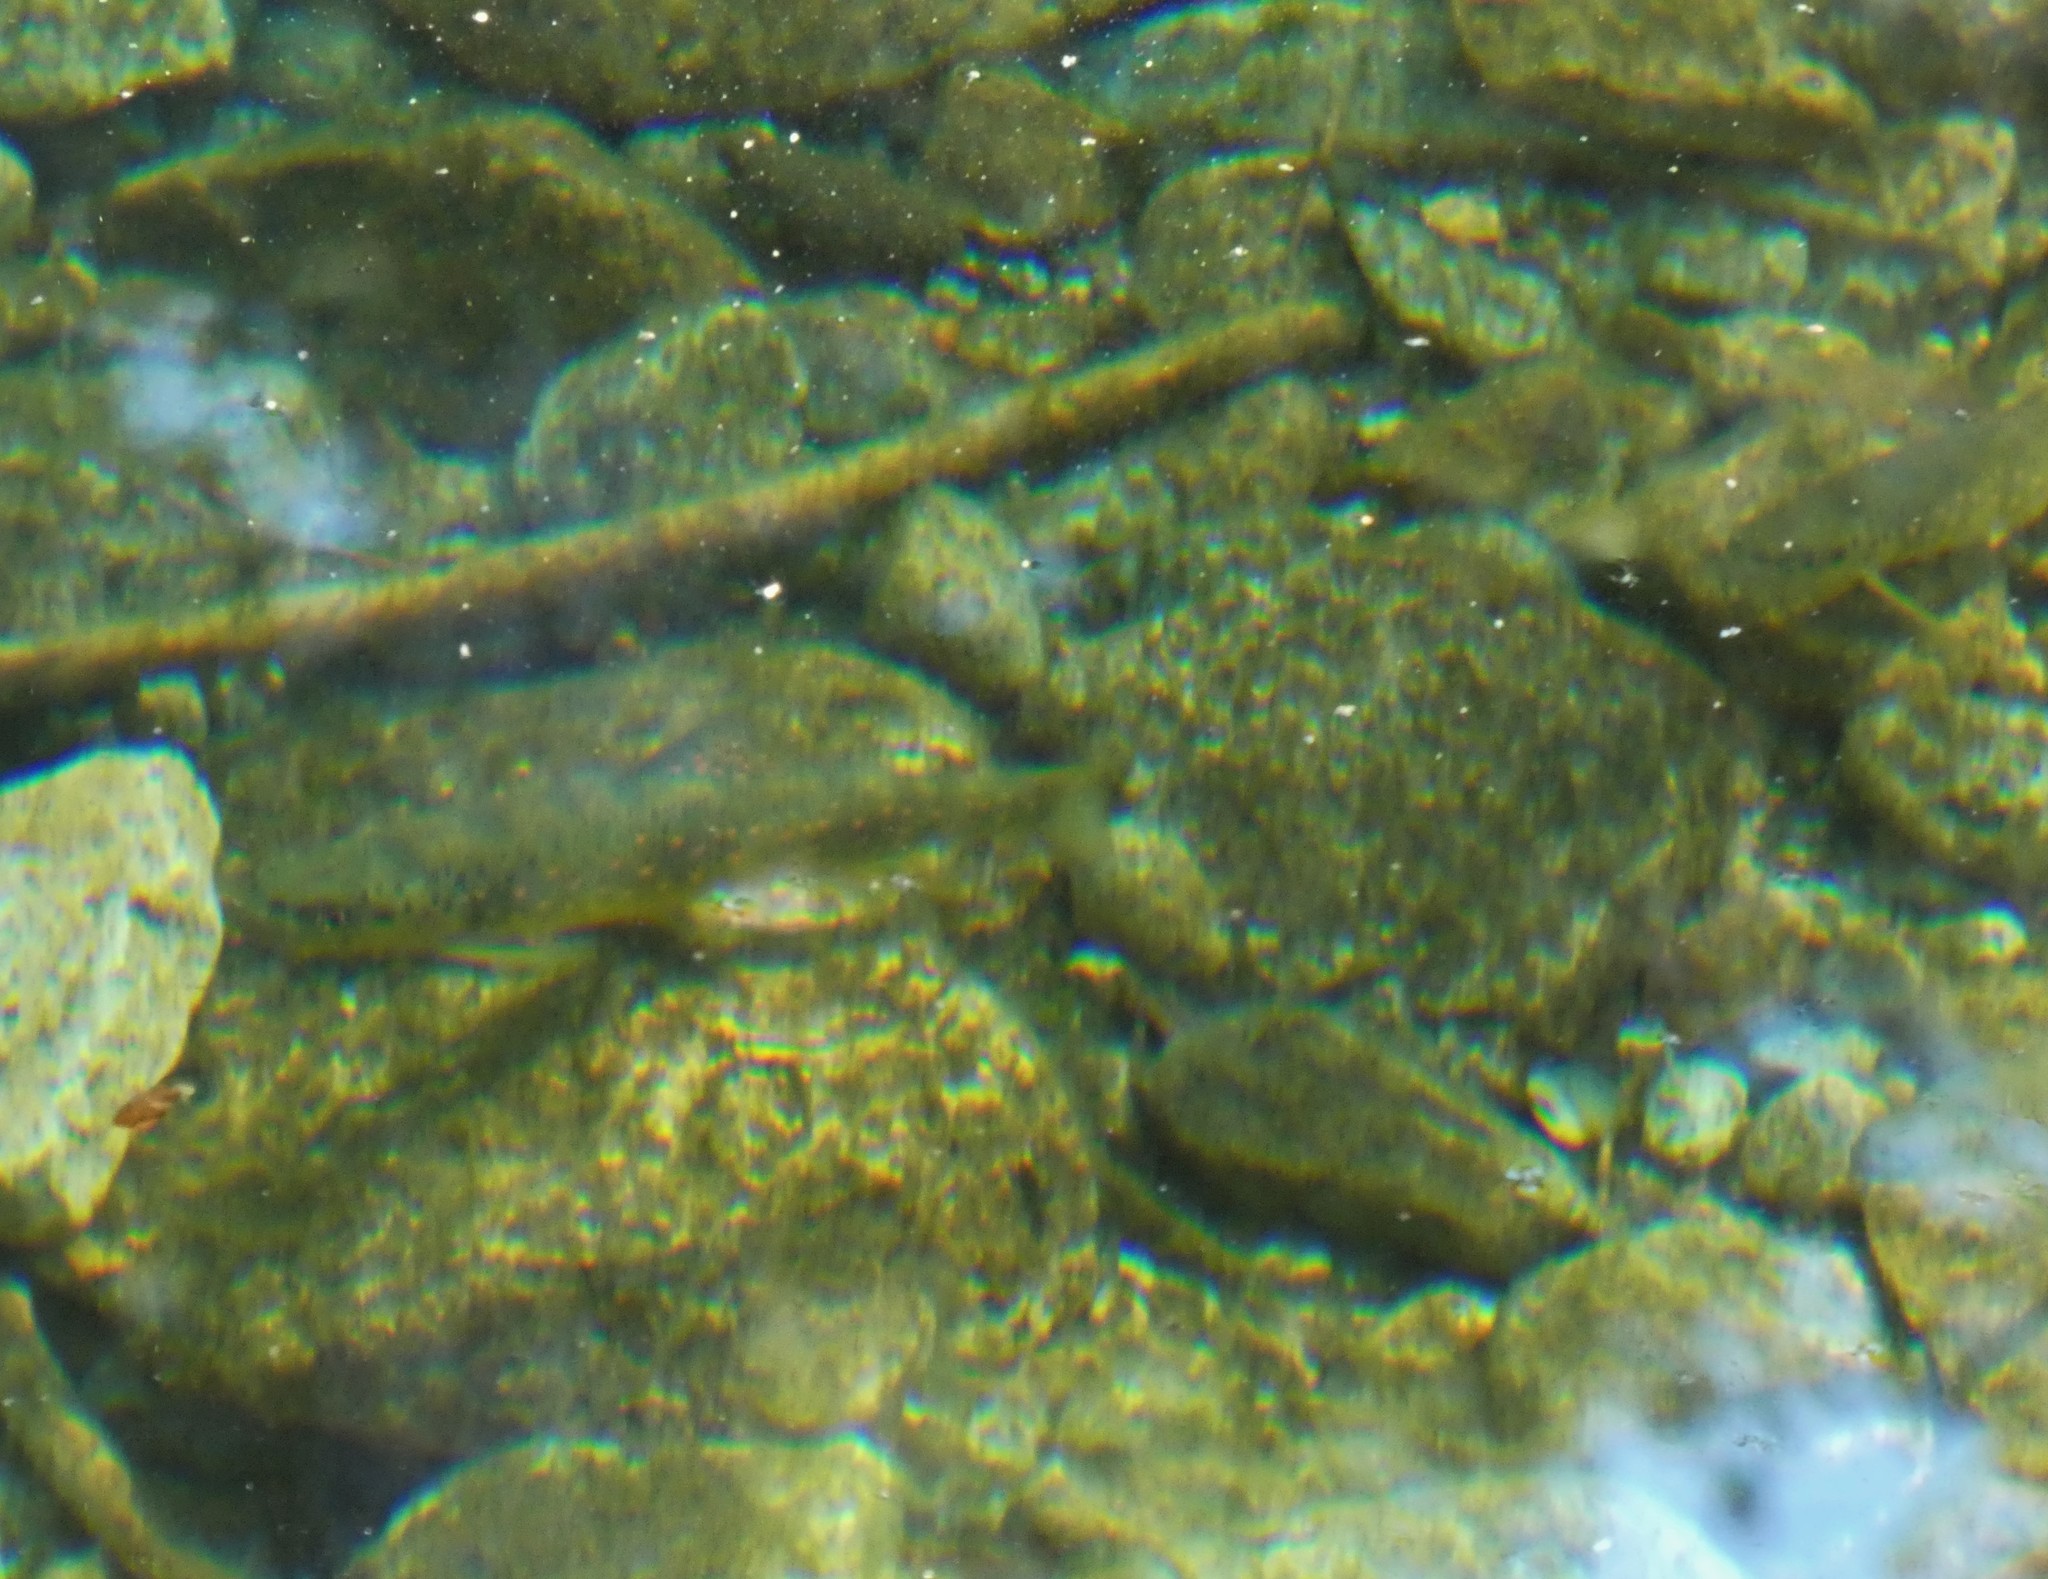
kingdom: Animalia
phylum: Chordata
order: Salmoniformes
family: Salmonidae
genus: Salmo
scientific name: Salmo trutta
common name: Brown trout
